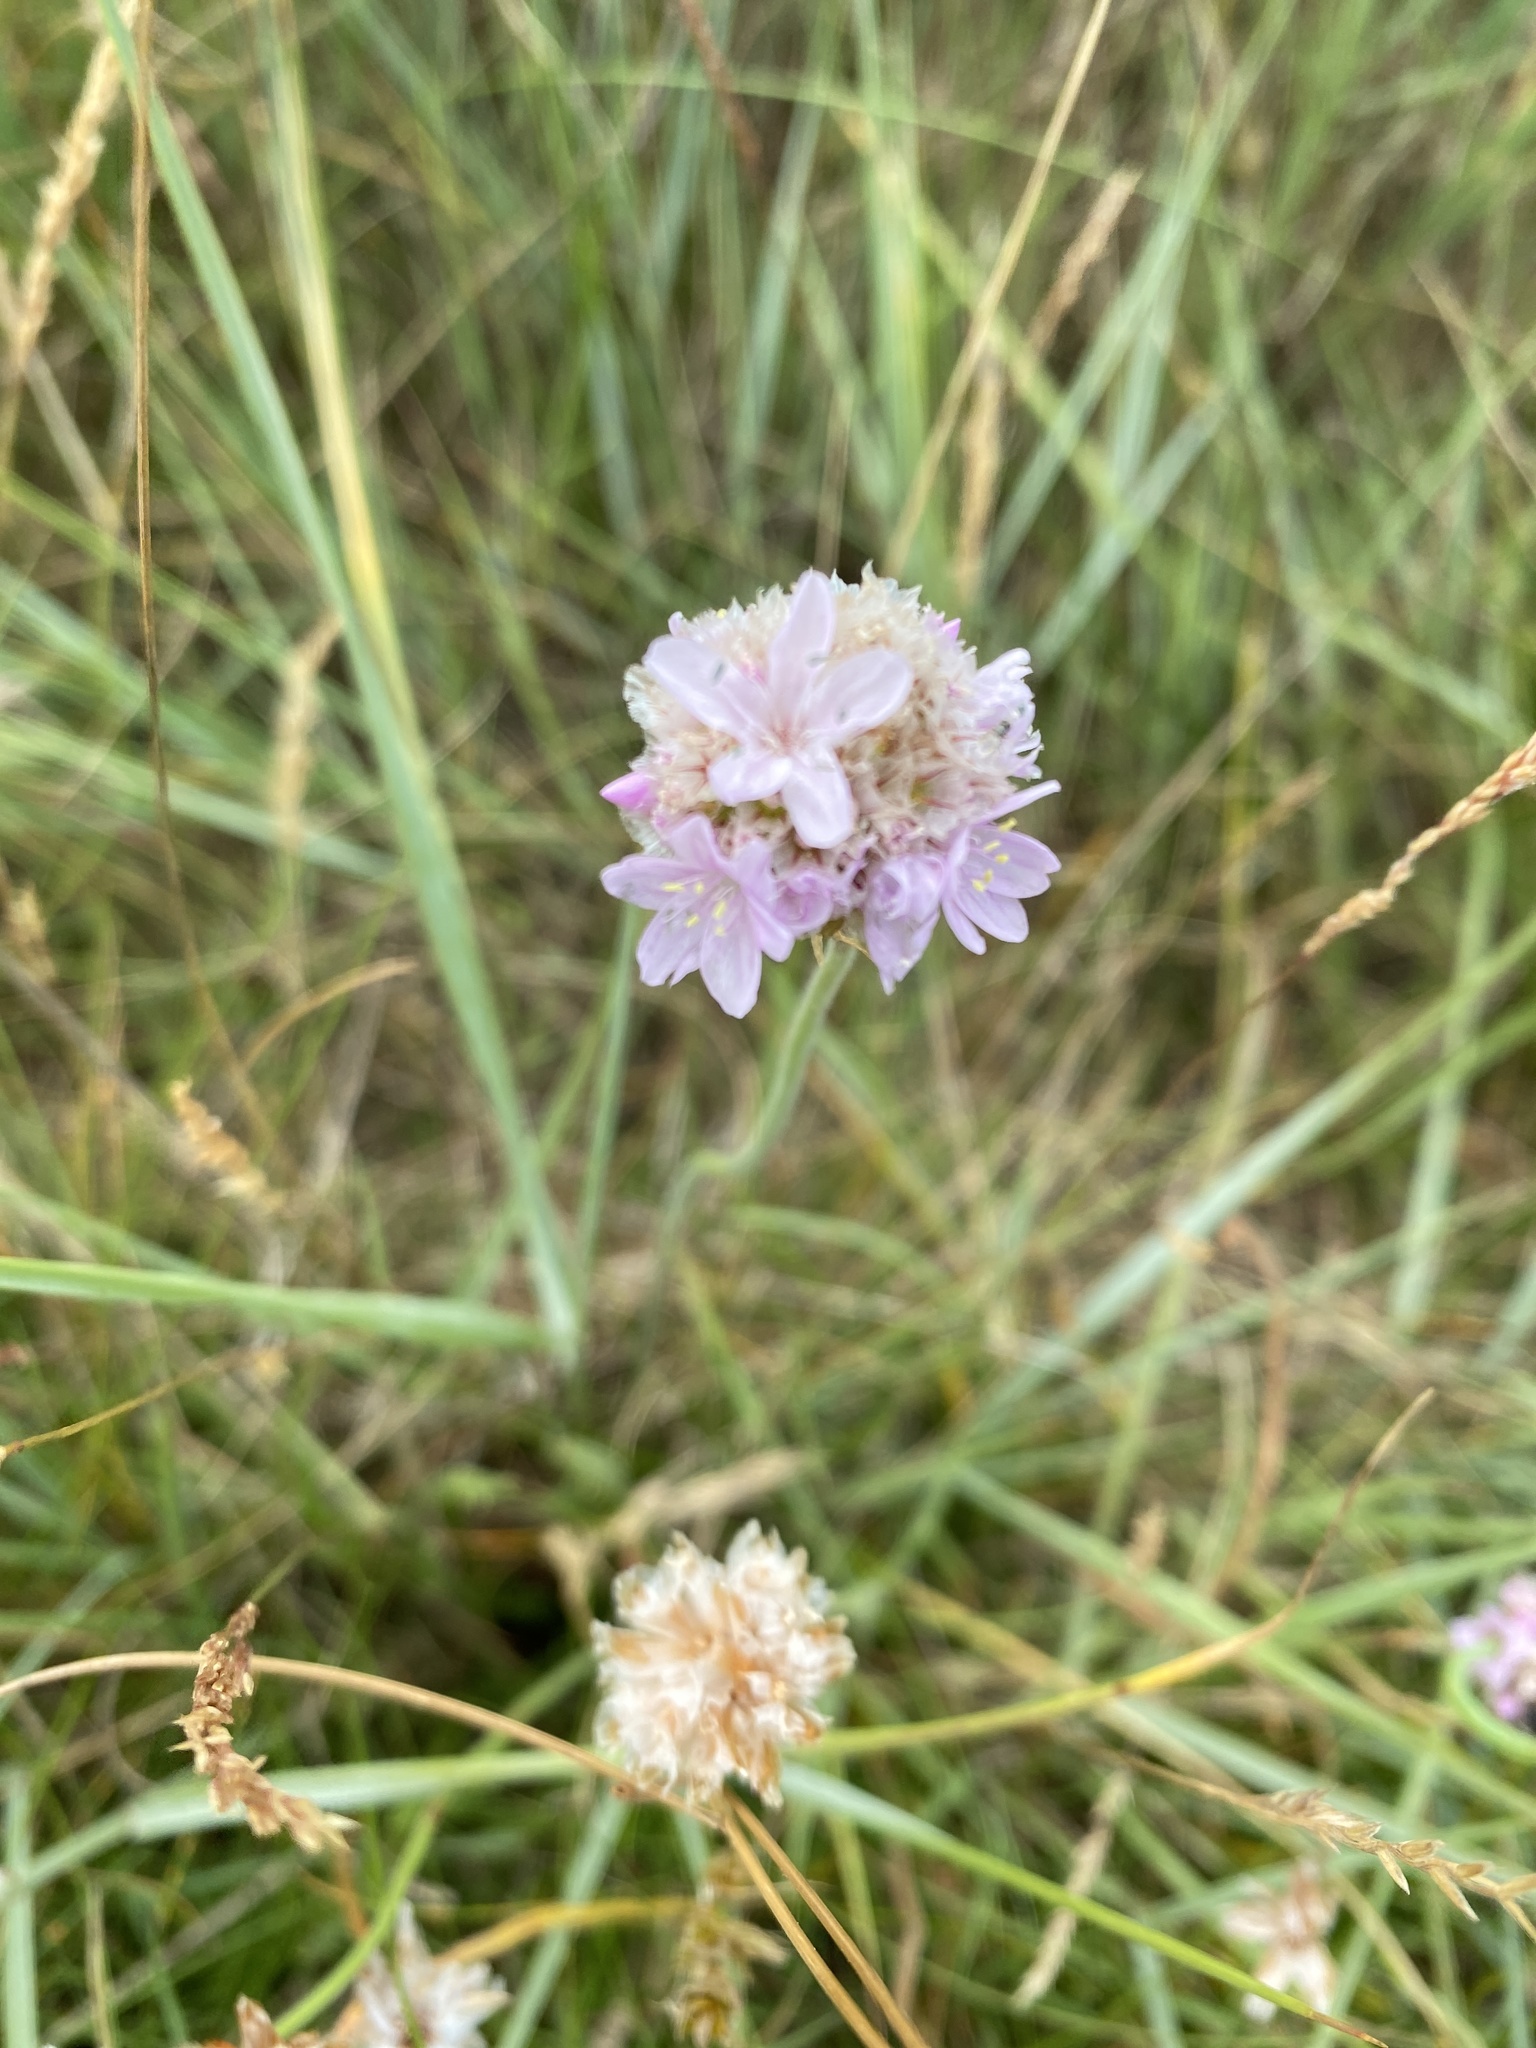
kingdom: Plantae
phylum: Tracheophyta
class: Magnoliopsida
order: Caryophyllales
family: Plumbaginaceae
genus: Armeria
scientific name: Armeria maritima
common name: Thrift
